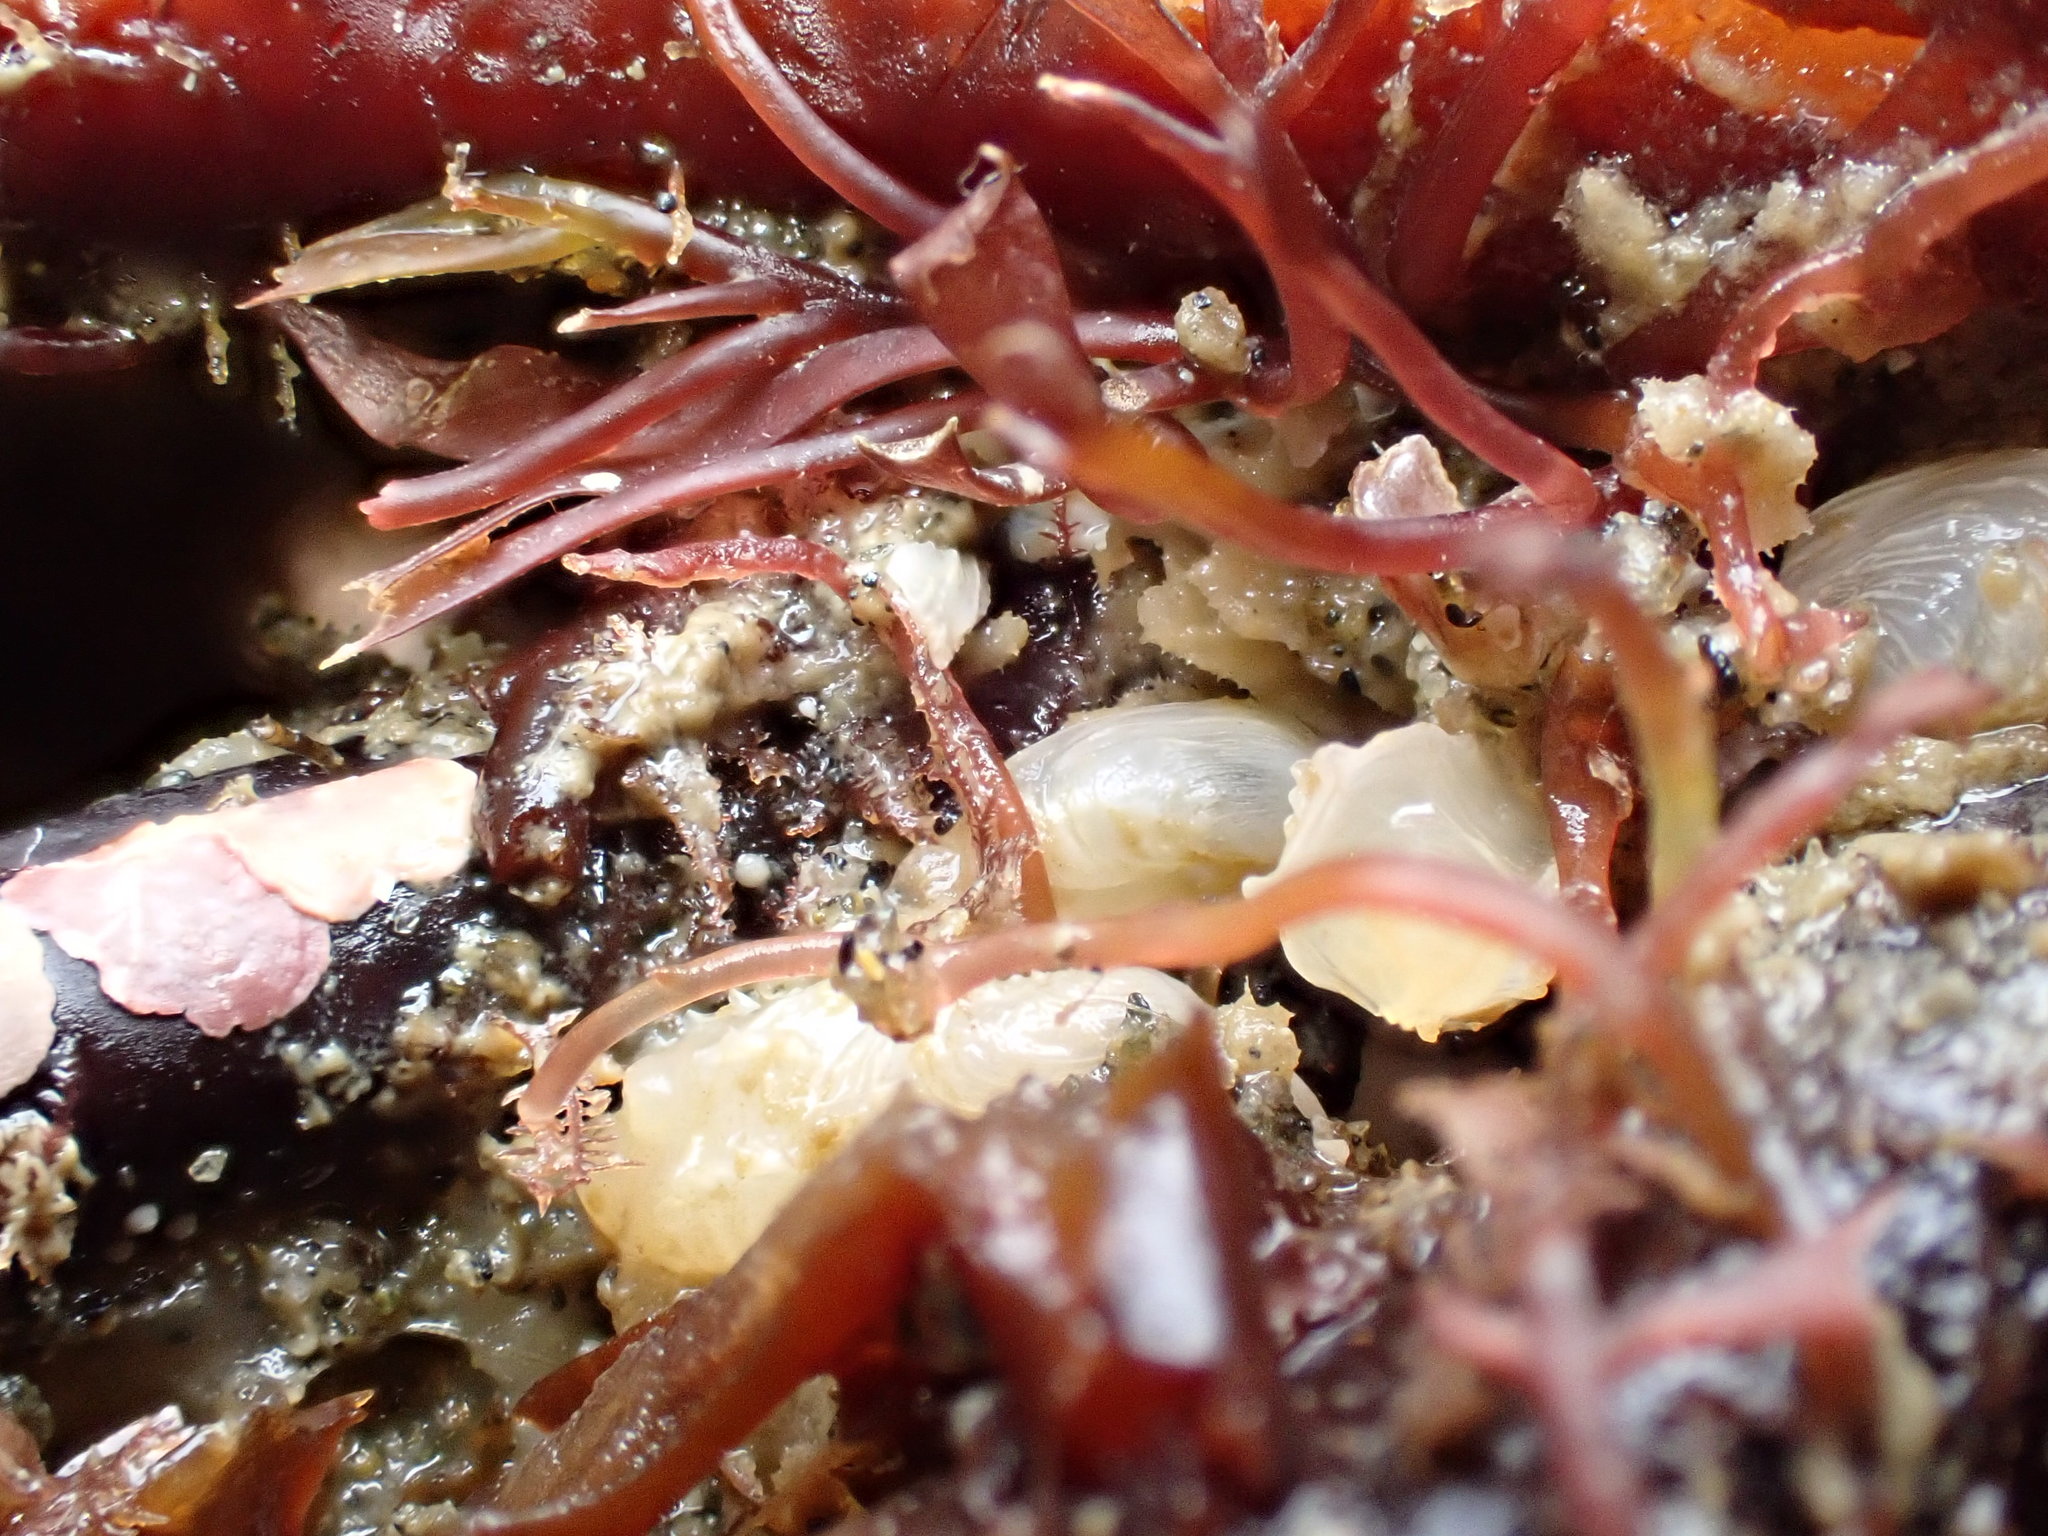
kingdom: Animalia
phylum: Mollusca
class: Bivalvia
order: Adapedonta
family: Hiatellidae
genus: Hiatella
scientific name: Hiatella arctica
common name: Arctic hiatella
